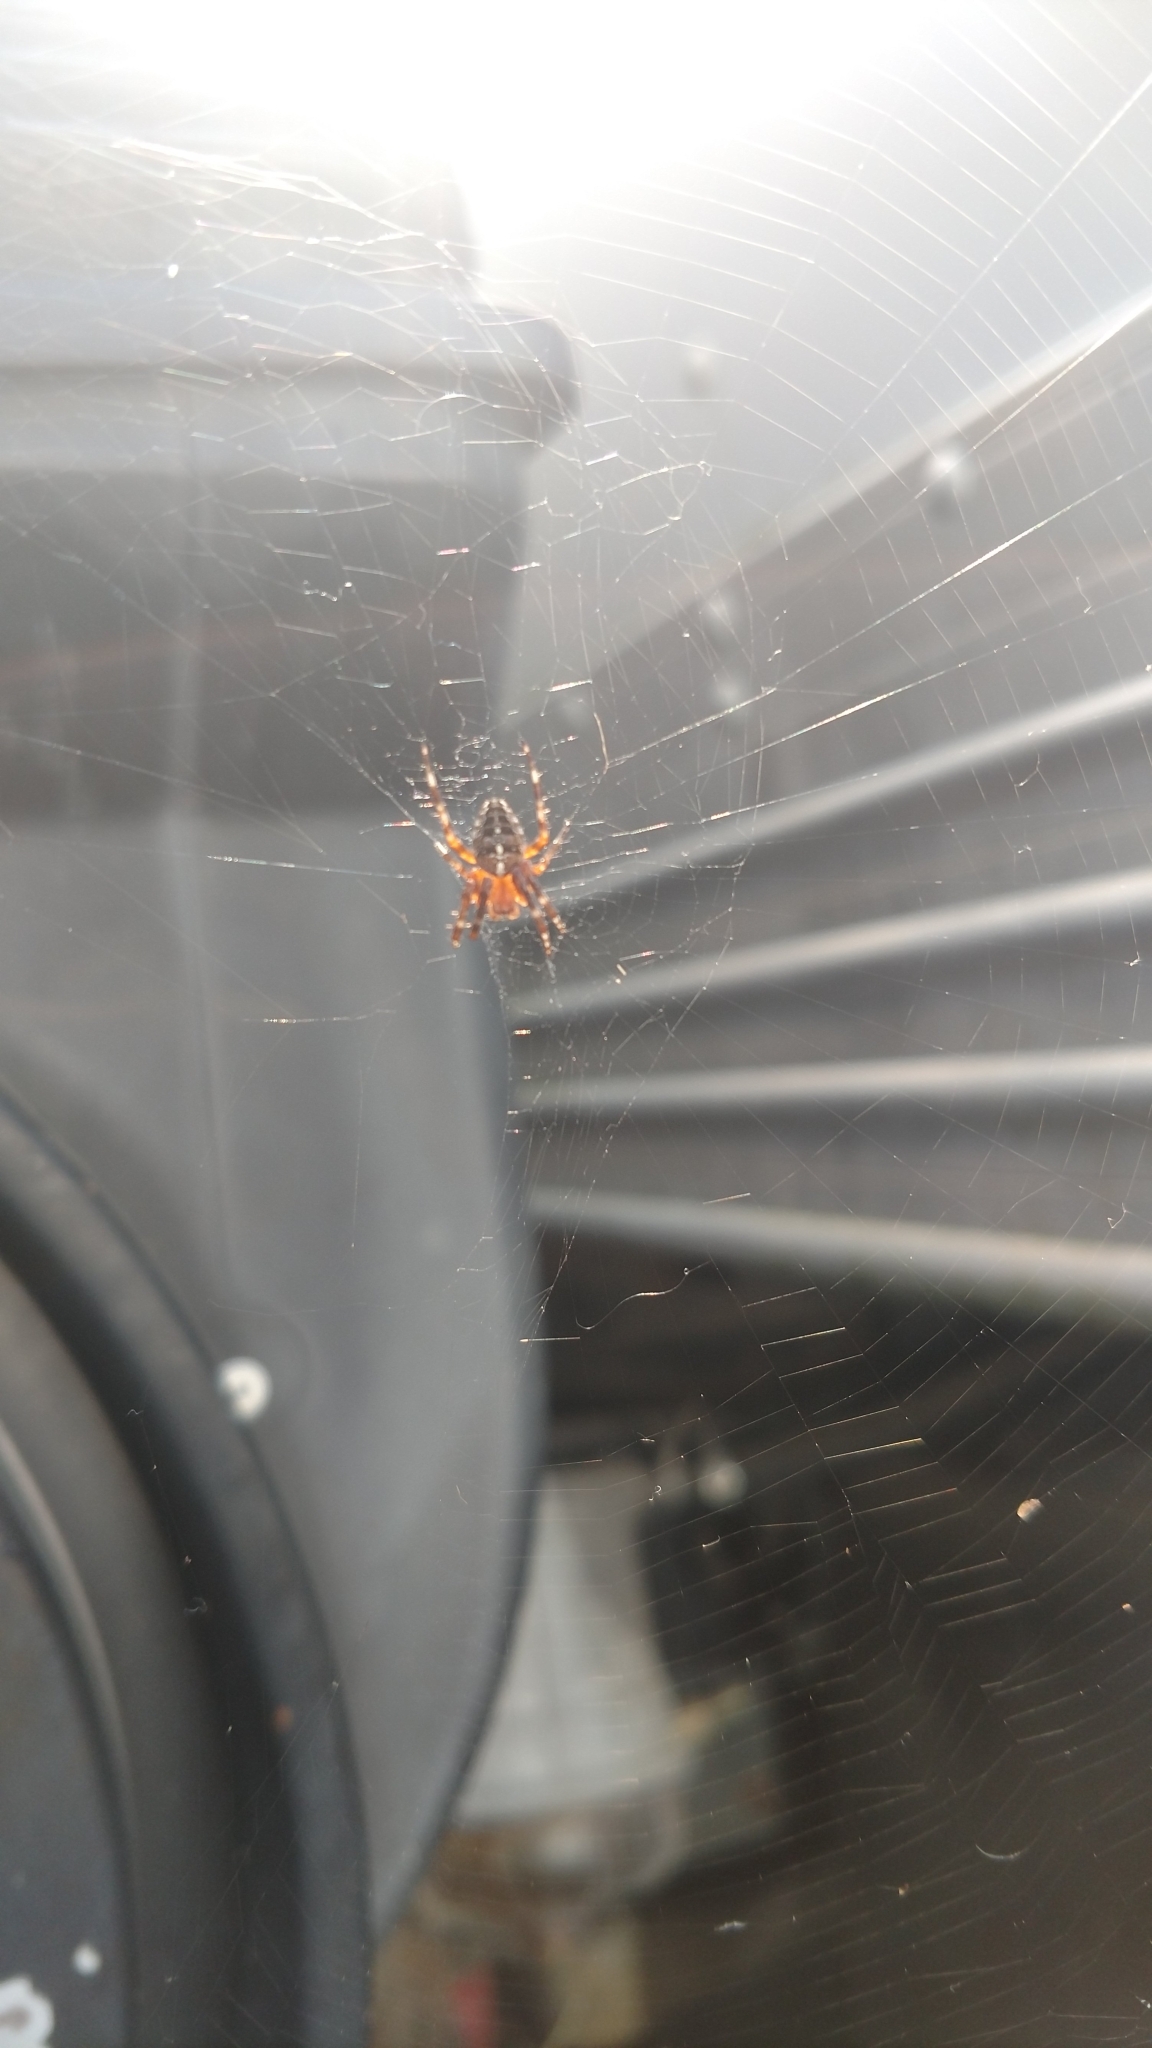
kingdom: Animalia
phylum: Arthropoda
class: Arachnida
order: Araneae
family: Araneidae
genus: Araneus
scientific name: Araneus diadematus
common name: Cross orbweaver
